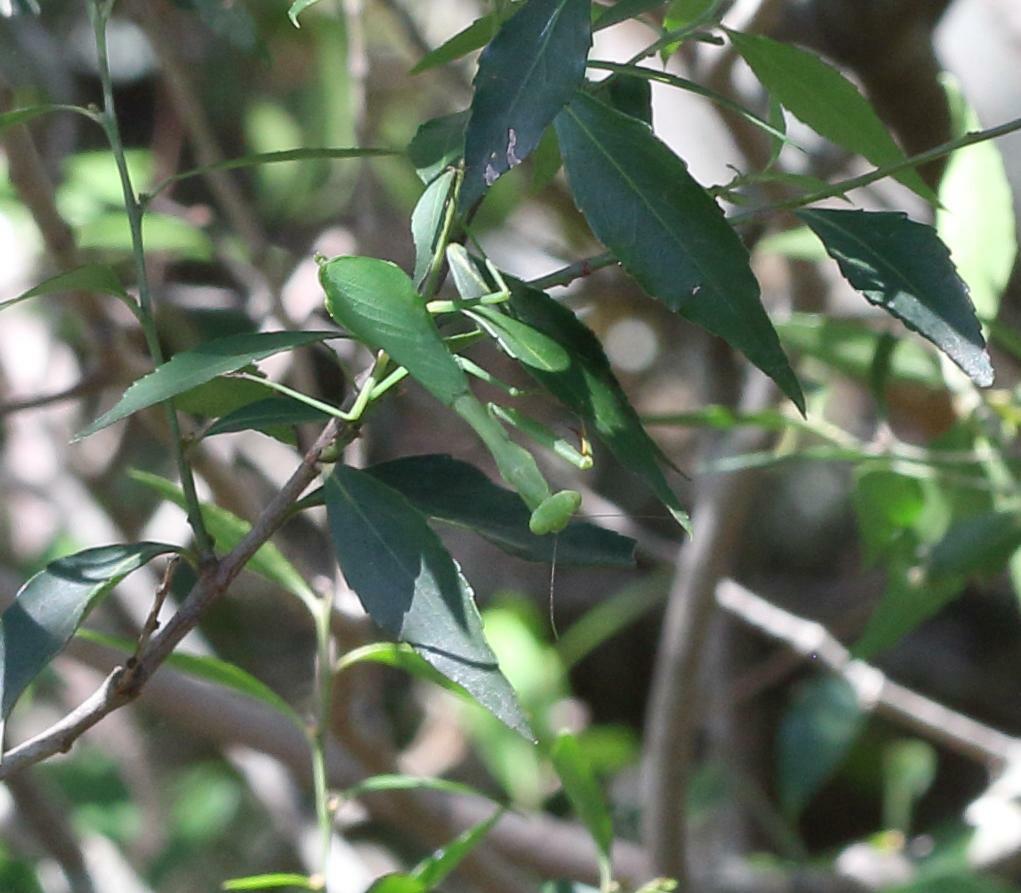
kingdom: Animalia
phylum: Arthropoda
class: Insecta
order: Mantodea
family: Miomantidae
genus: Miomantis
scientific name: Miomantis caffra
